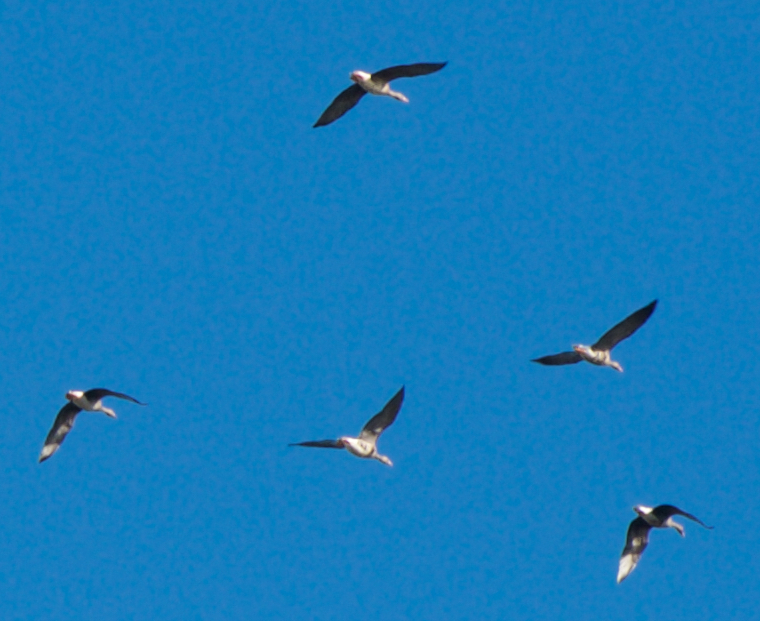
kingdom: Animalia
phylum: Chordata
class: Aves
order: Anseriformes
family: Anatidae
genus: Anser
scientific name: Anser albifrons
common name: Greater white-fronted goose
